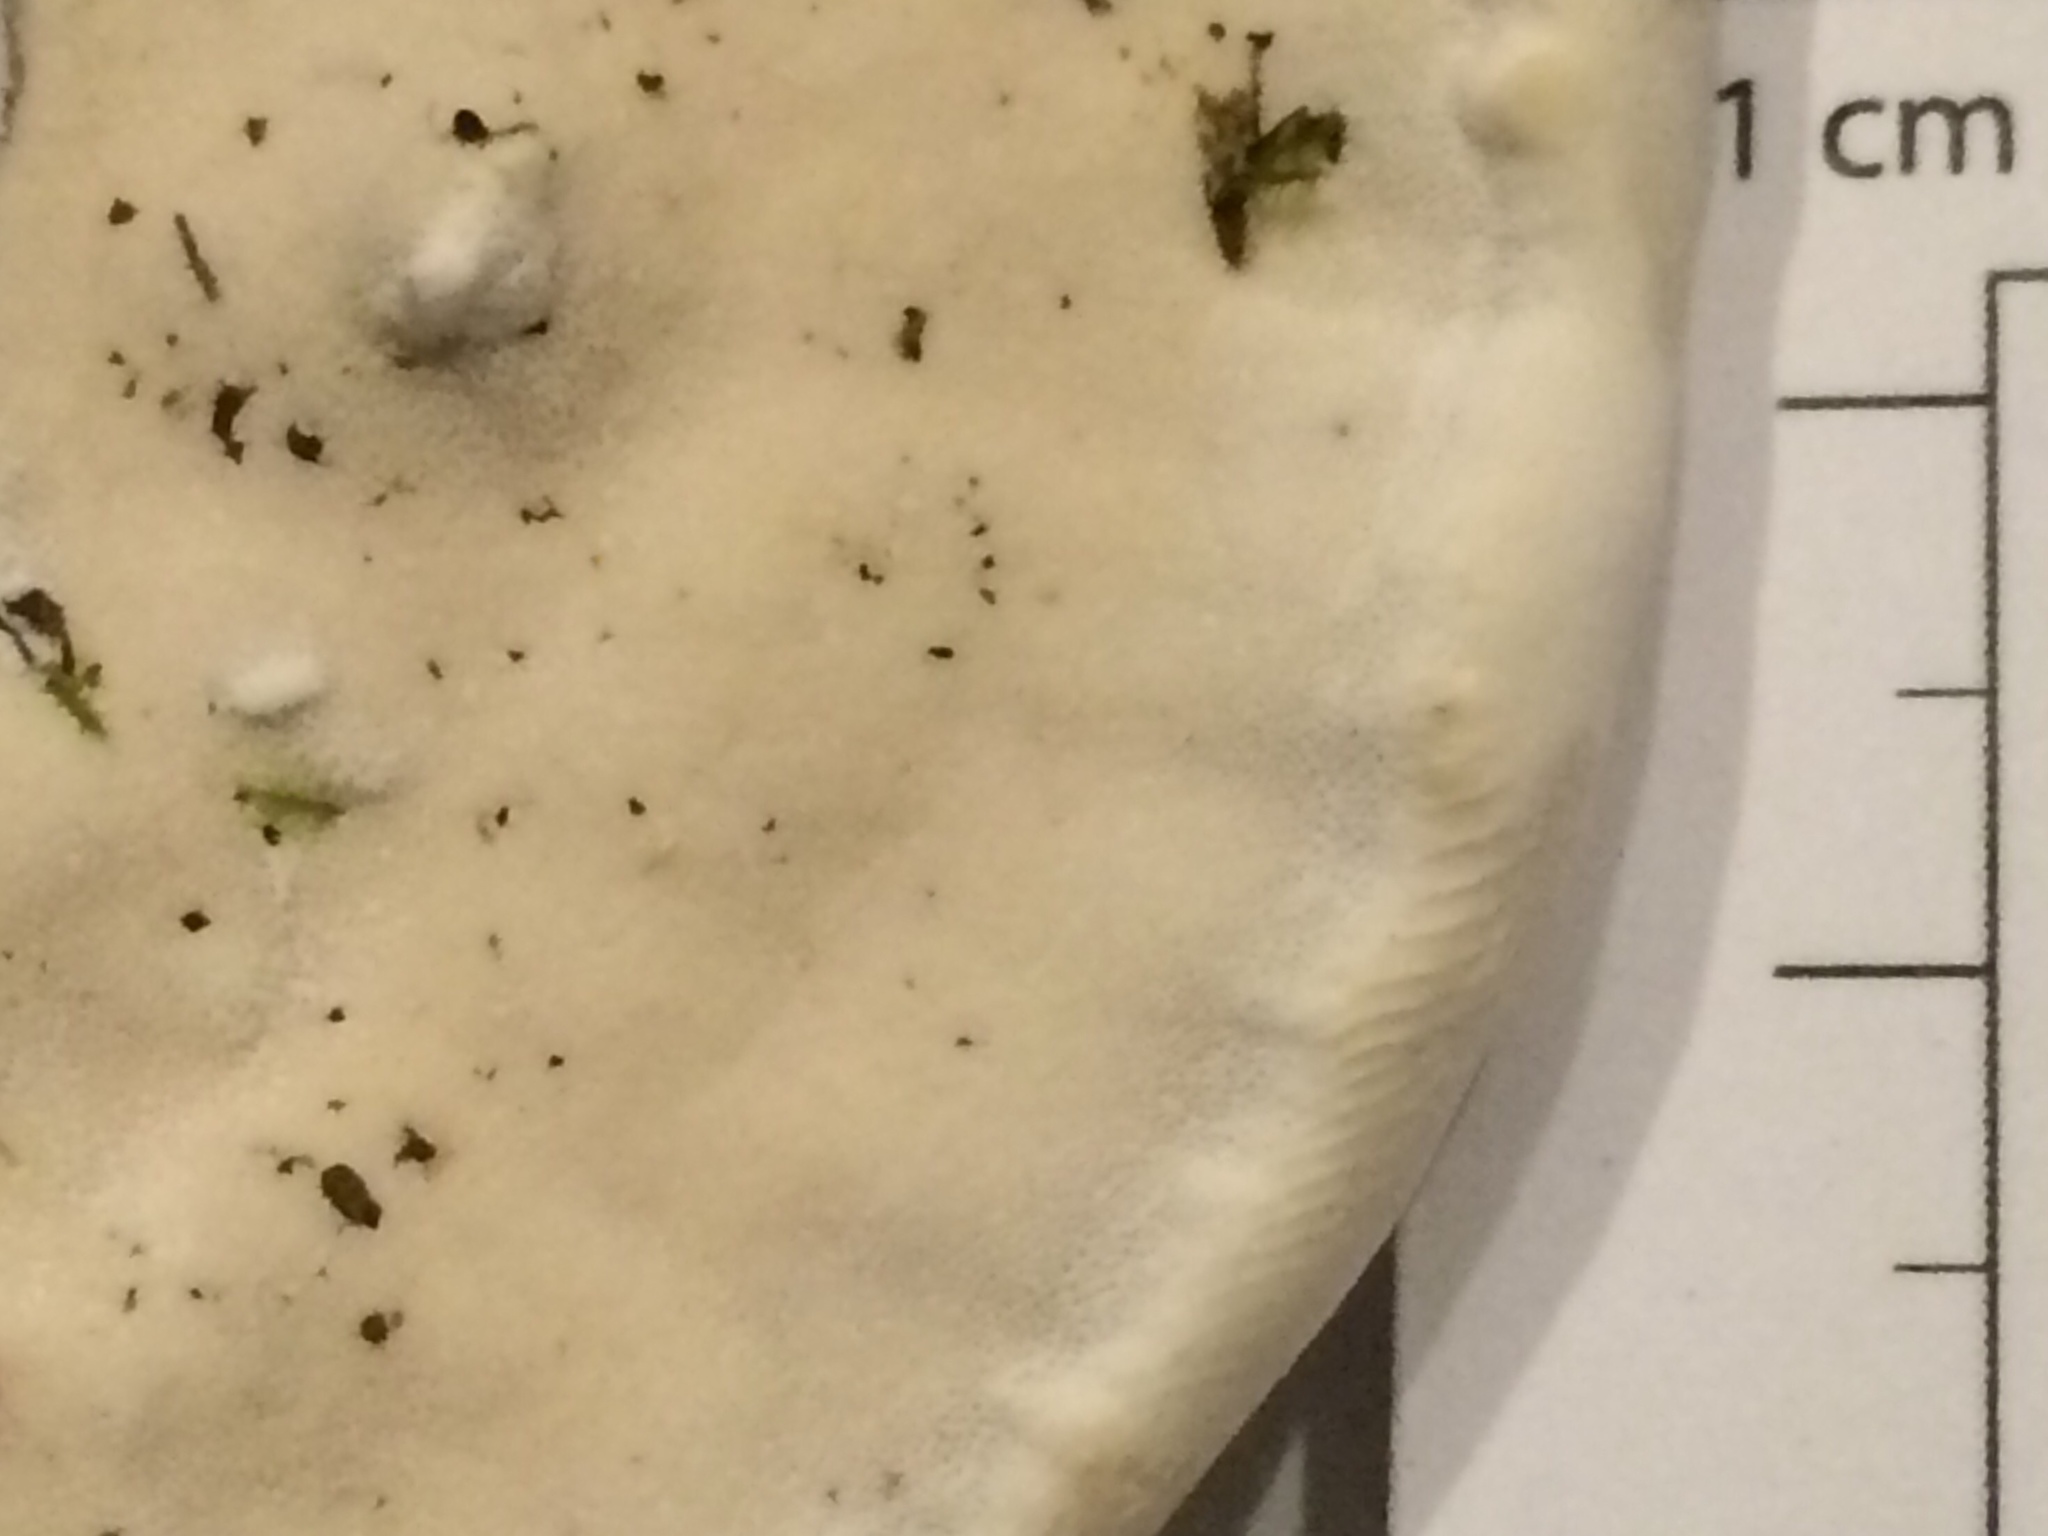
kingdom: Fungi
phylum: Basidiomycota
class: Agaricomycetes
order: Hymenochaetales
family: Oxyporaceae
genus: Oxyporus
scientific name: Oxyporus populinus
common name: Poplar bracket
